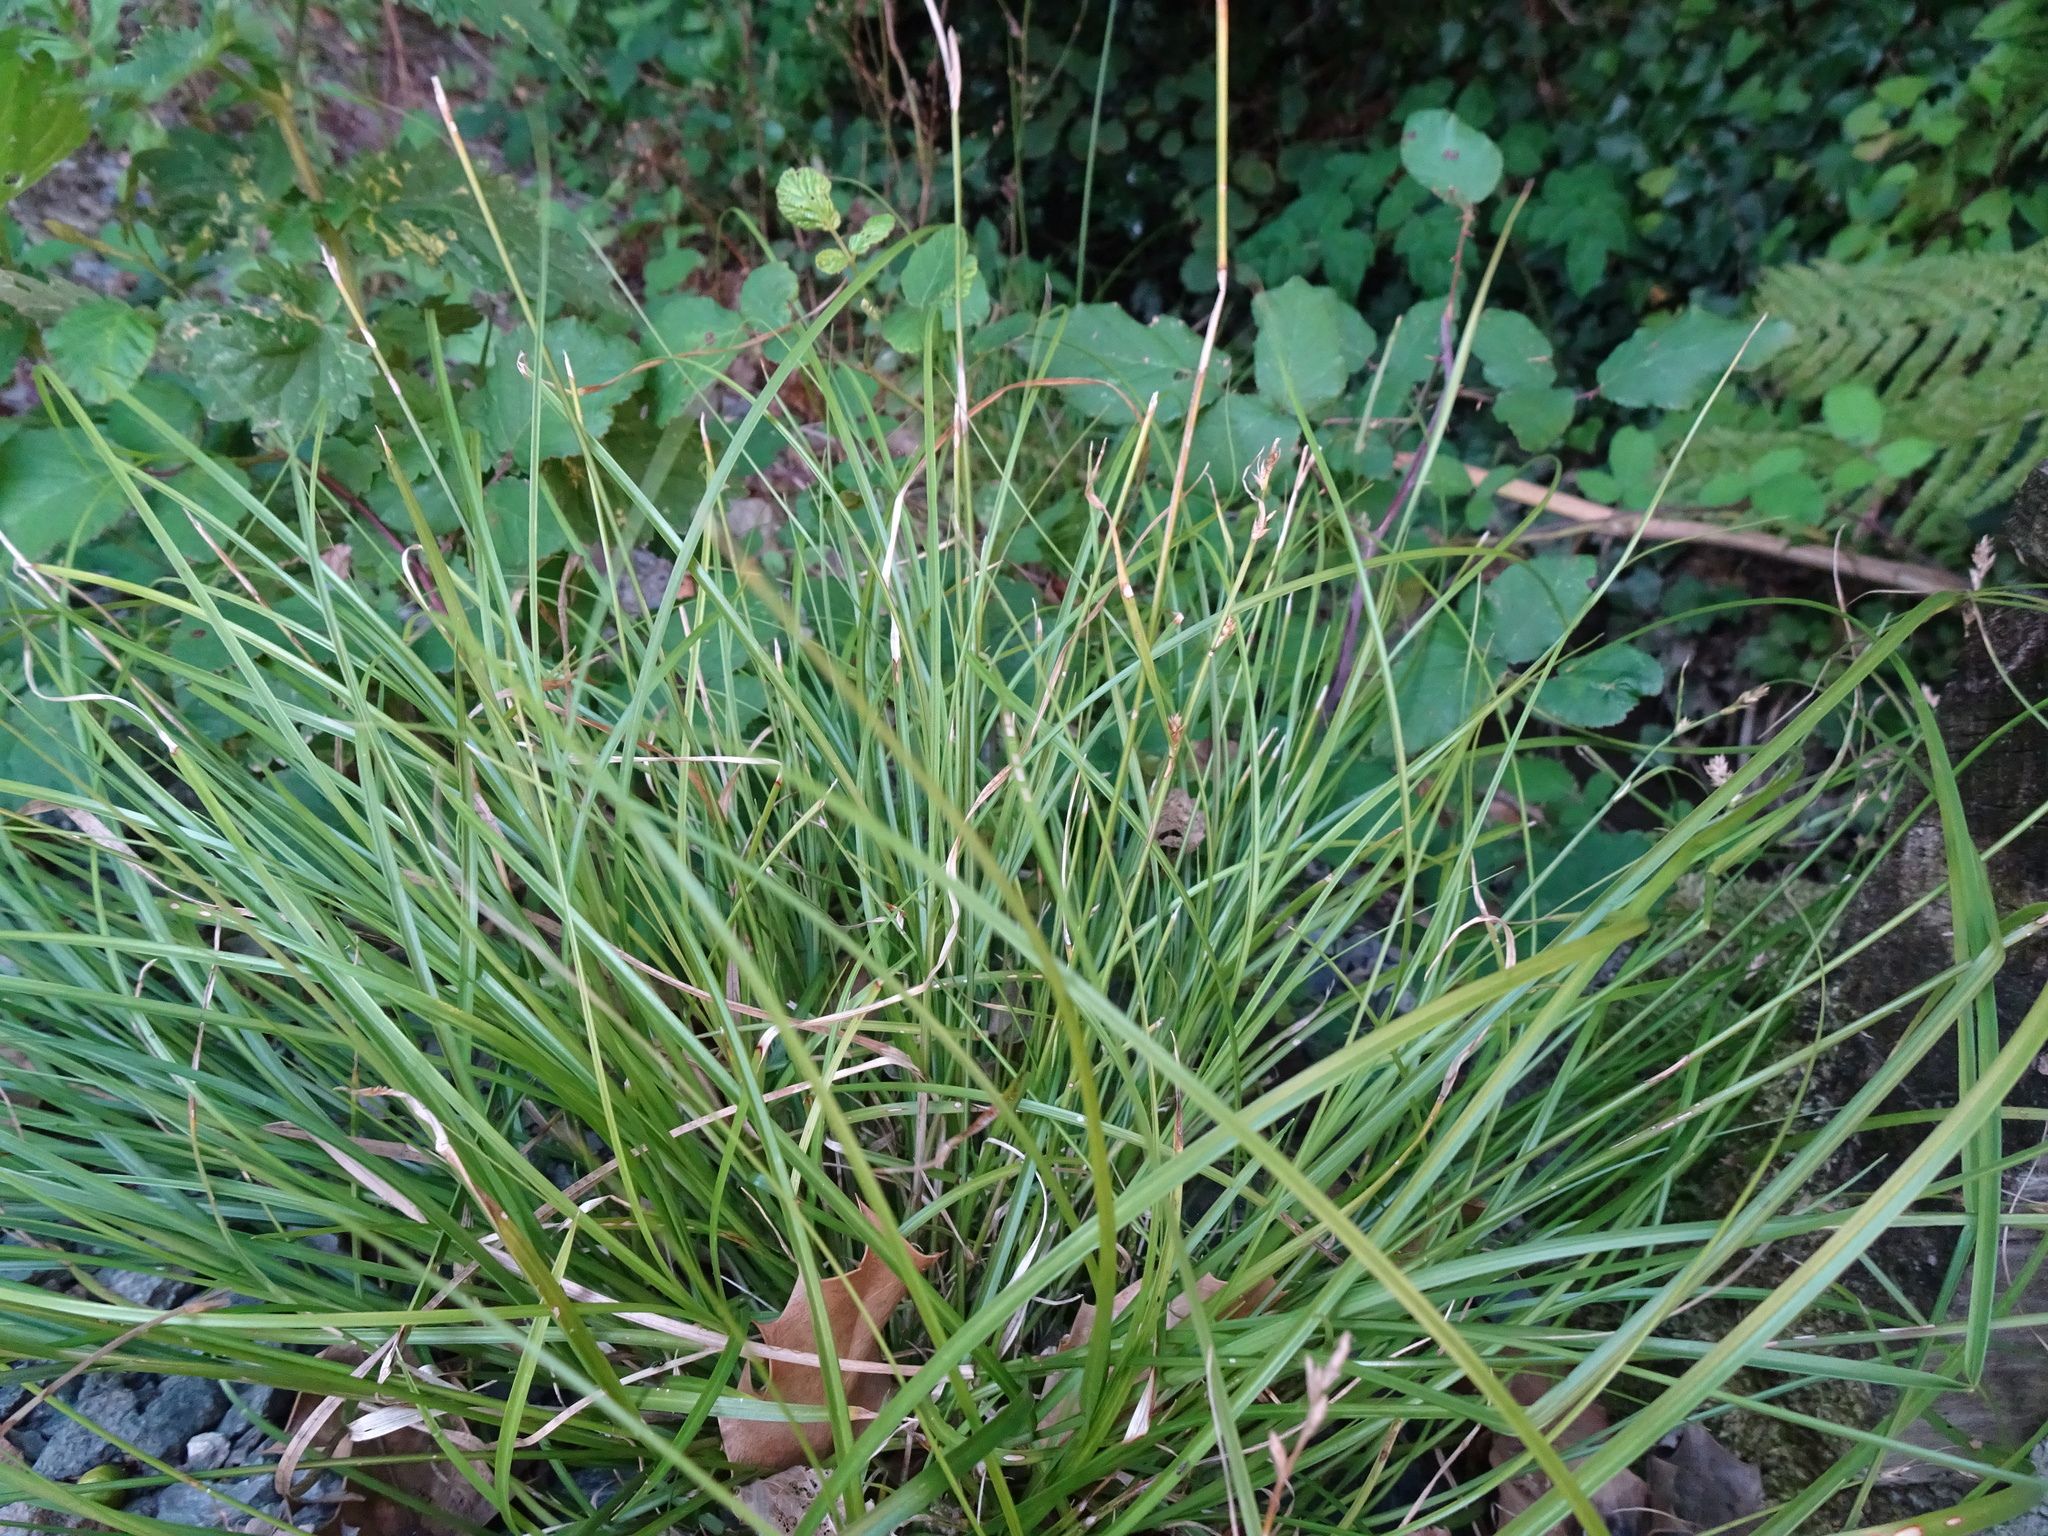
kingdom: Plantae
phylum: Tracheophyta
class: Liliopsida
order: Poales
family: Cyperaceae
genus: Carex
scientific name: Carex remota
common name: Remote sedge
